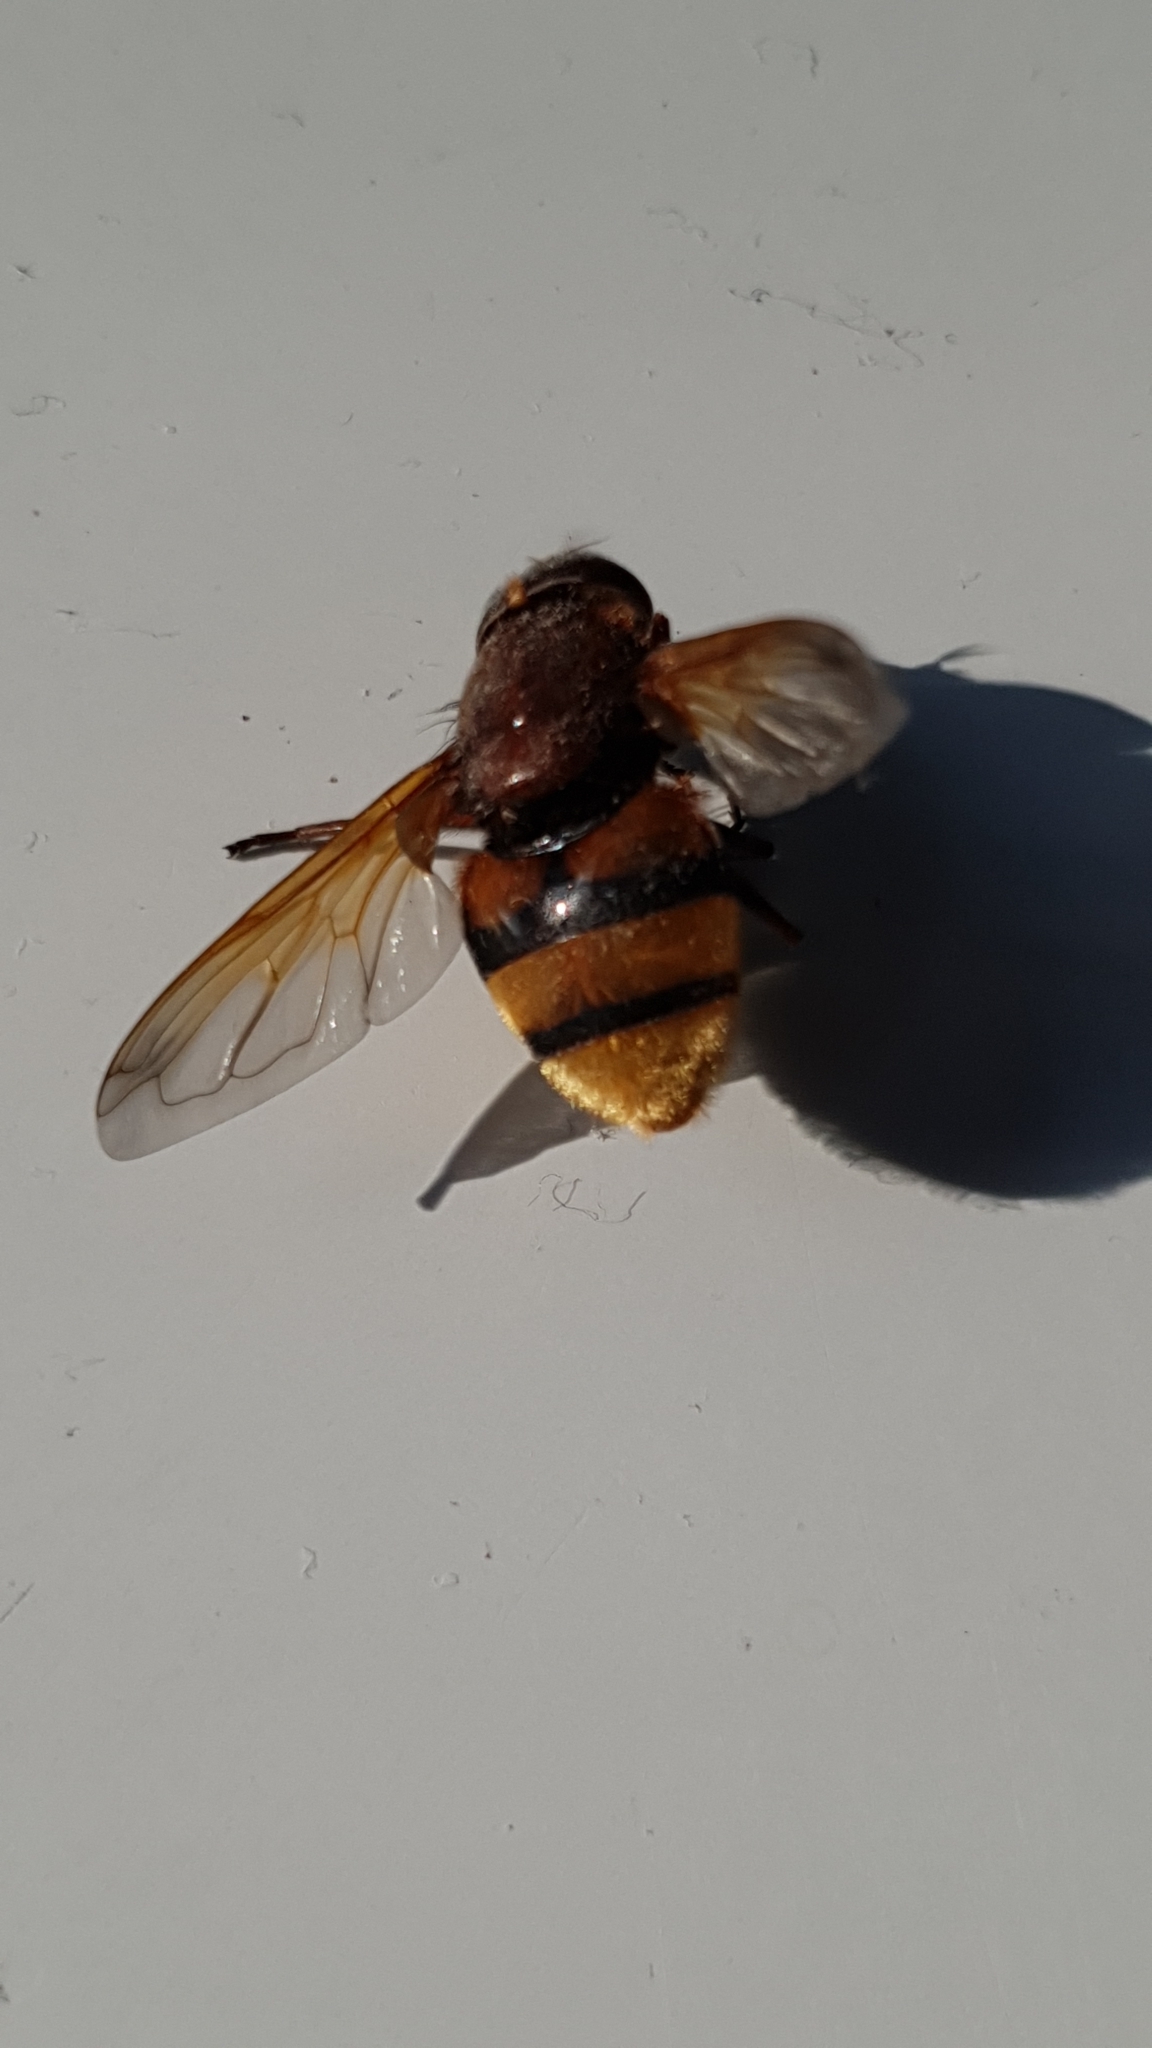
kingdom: Animalia
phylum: Arthropoda
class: Insecta
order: Diptera
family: Syrphidae
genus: Volucella
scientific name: Volucella zonaria
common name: Hornet hoverfly
